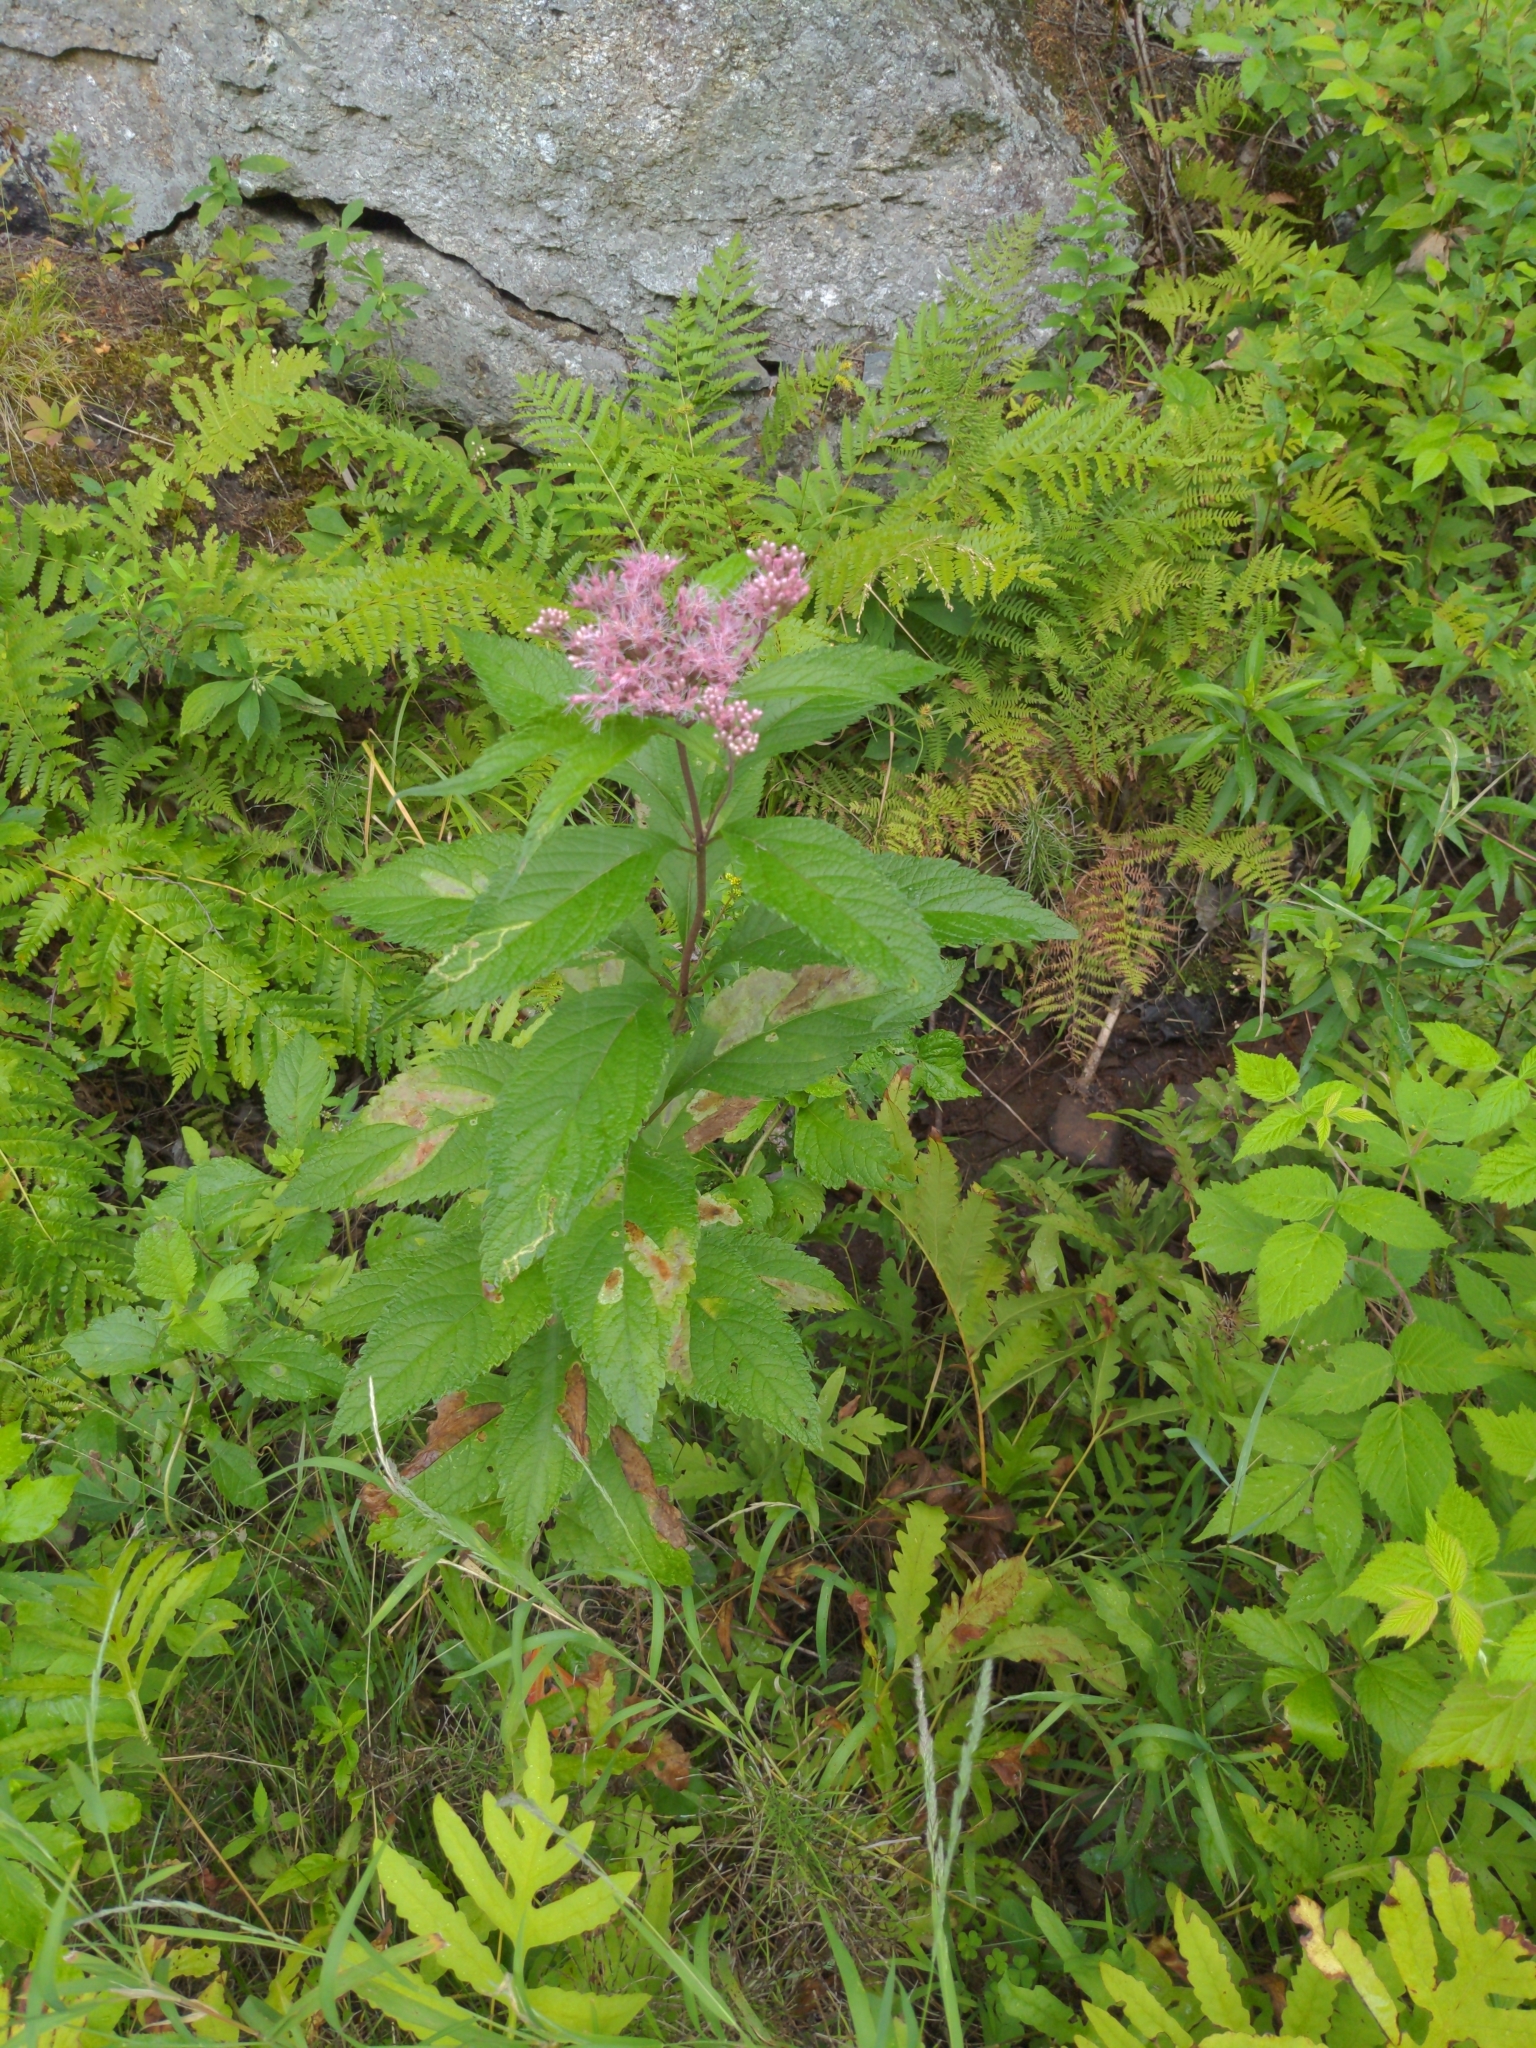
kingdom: Plantae
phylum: Tracheophyta
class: Magnoliopsida
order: Asterales
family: Asteraceae
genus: Eutrochium
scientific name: Eutrochium maculatum
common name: Spotted joe pye weed
